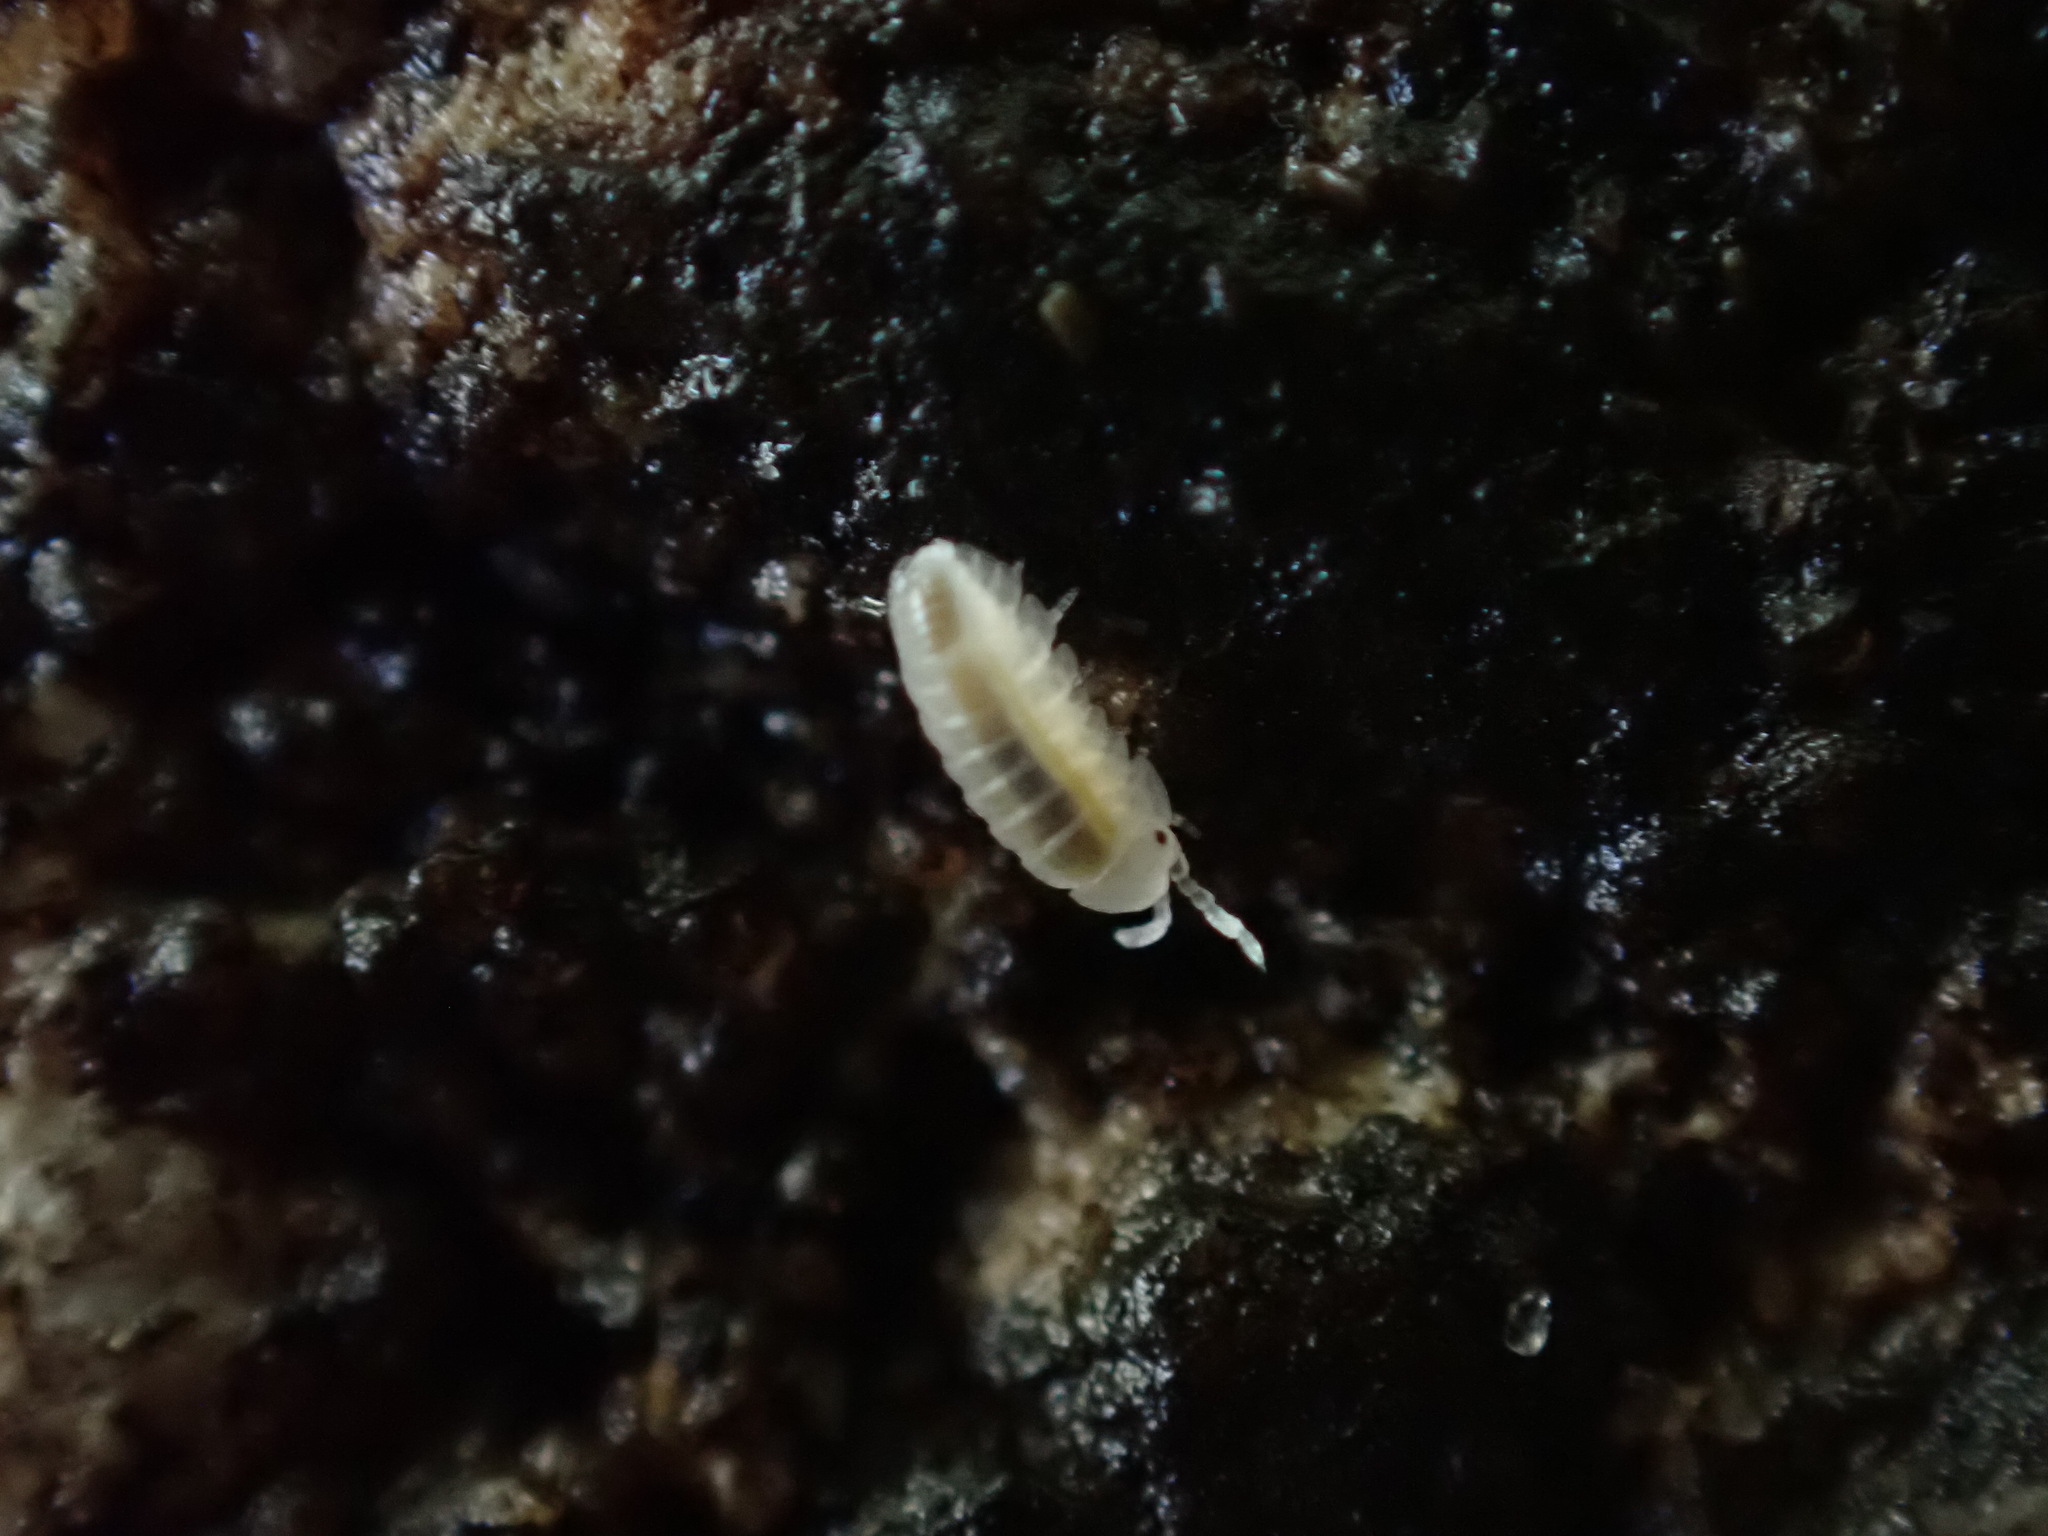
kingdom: Animalia
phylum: Arthropoda
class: Malacostraca
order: Isopoda
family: Armadillidiidae
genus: Armadillidium
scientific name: Armadillidium vulgare
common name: Common pill woodlouse
